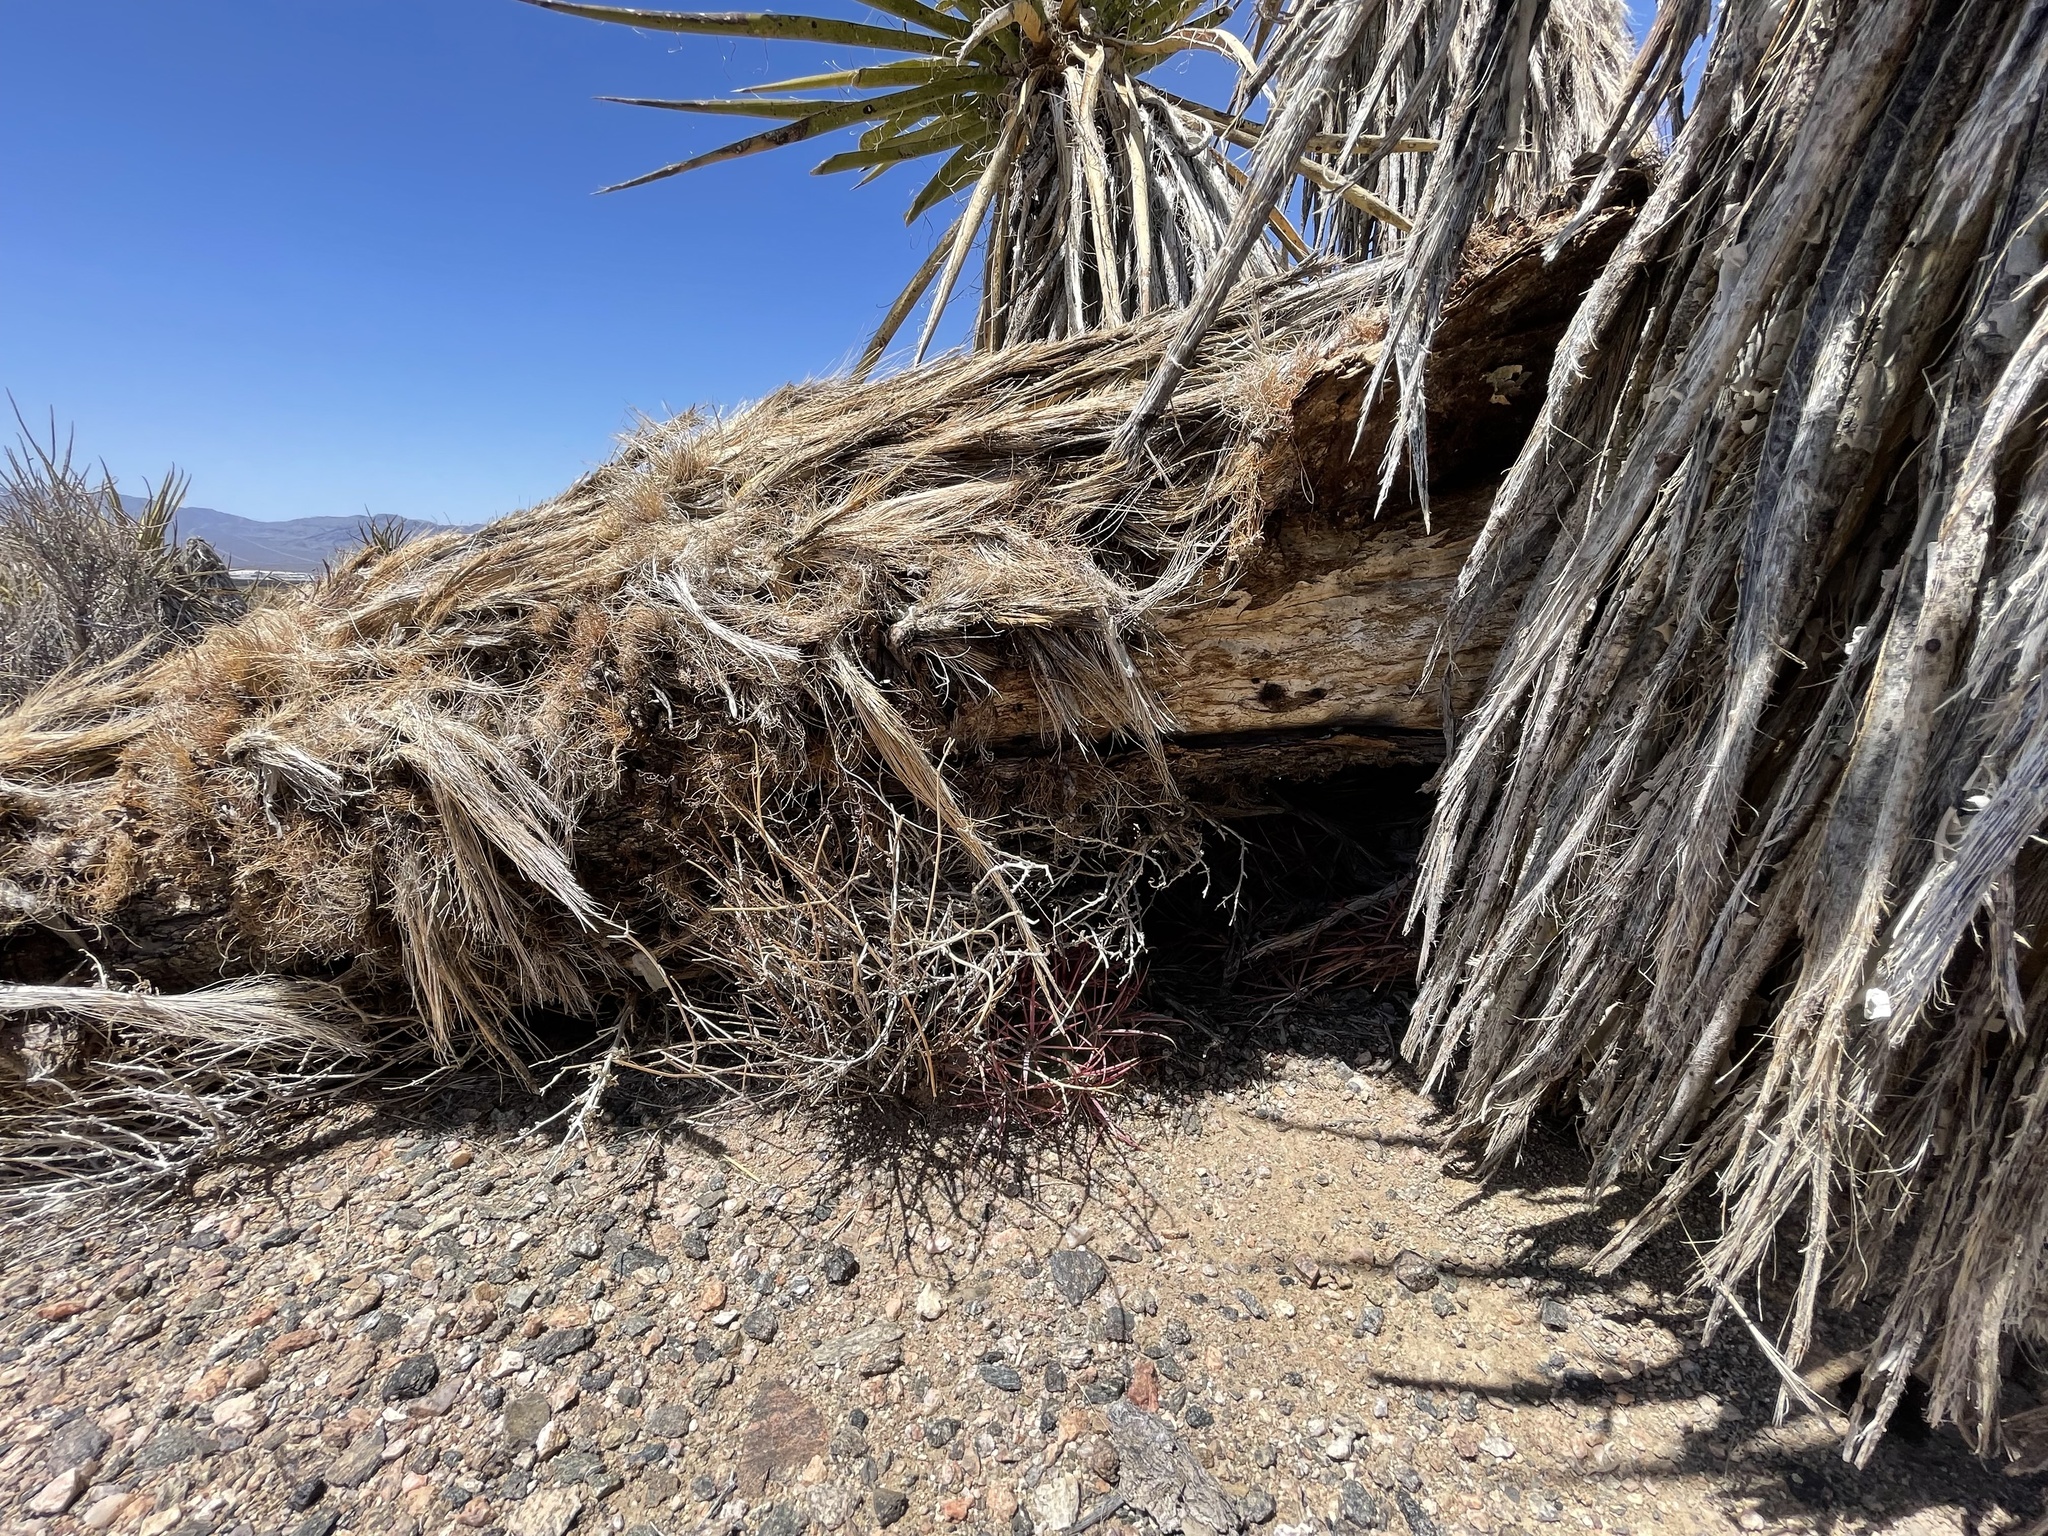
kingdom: Plantae
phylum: Tracheophyta
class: Magnoliopsida
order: Caryophyllales
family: Cactaceae
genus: Ferocactus
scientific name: Ferocactus cylindraceus
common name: California barrel cactus
